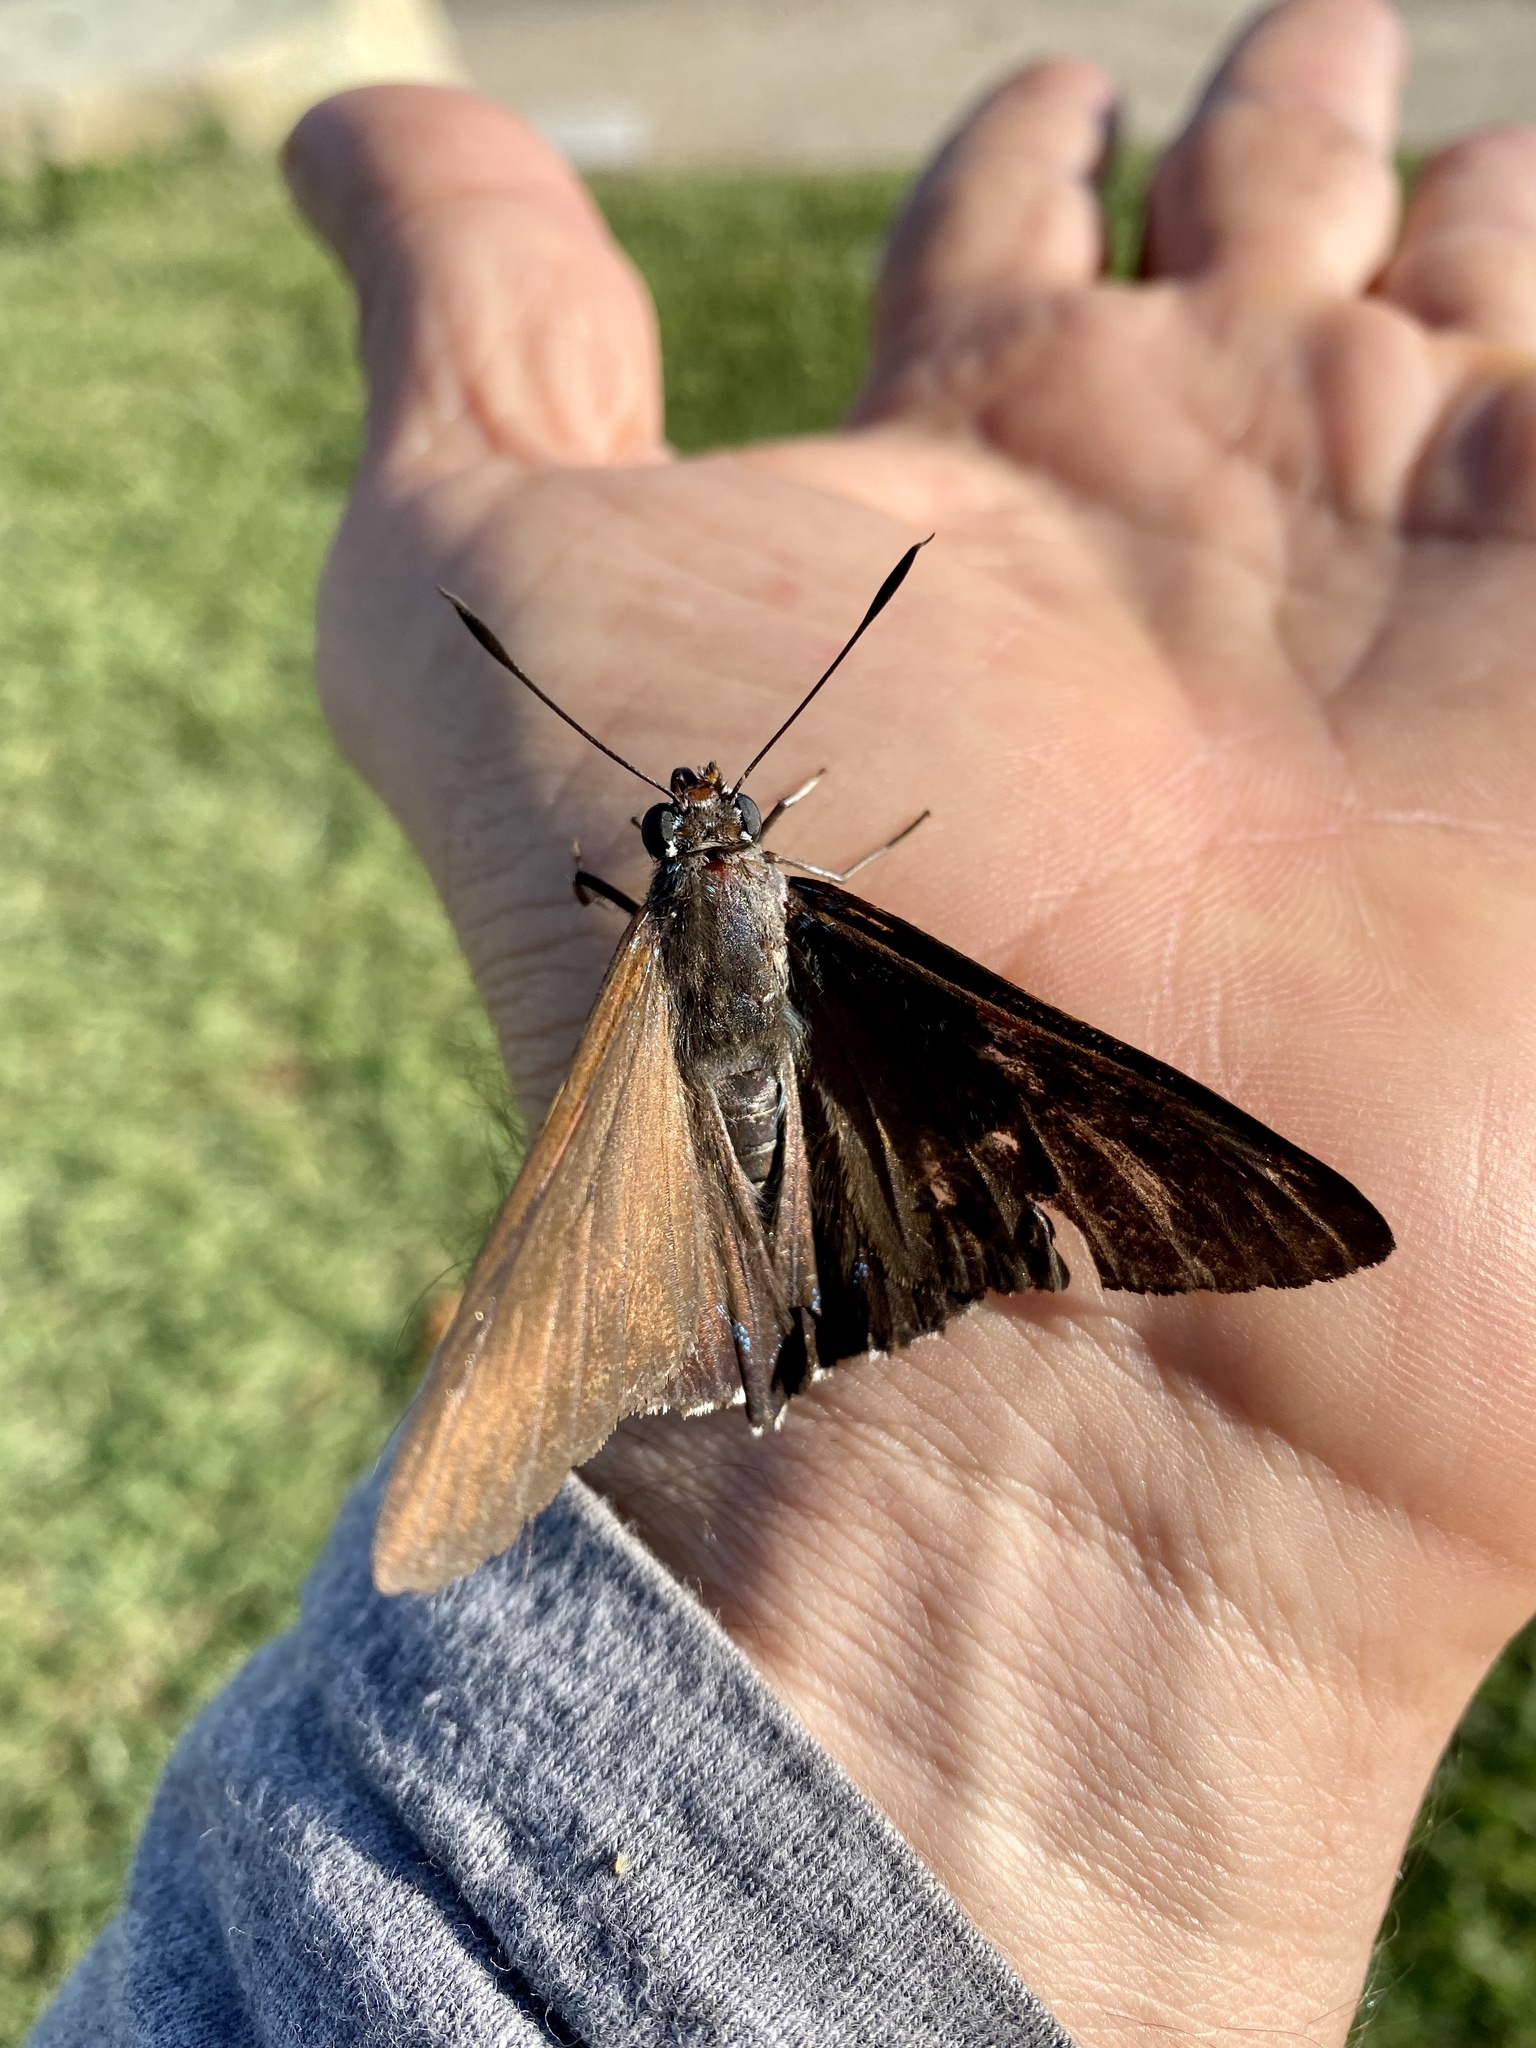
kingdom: Animalia
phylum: Arthropoda
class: Insecta
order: Lepidoptera
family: Hesperiidae
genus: Asbolis
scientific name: Asbolis capucinus
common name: Monk skipper
